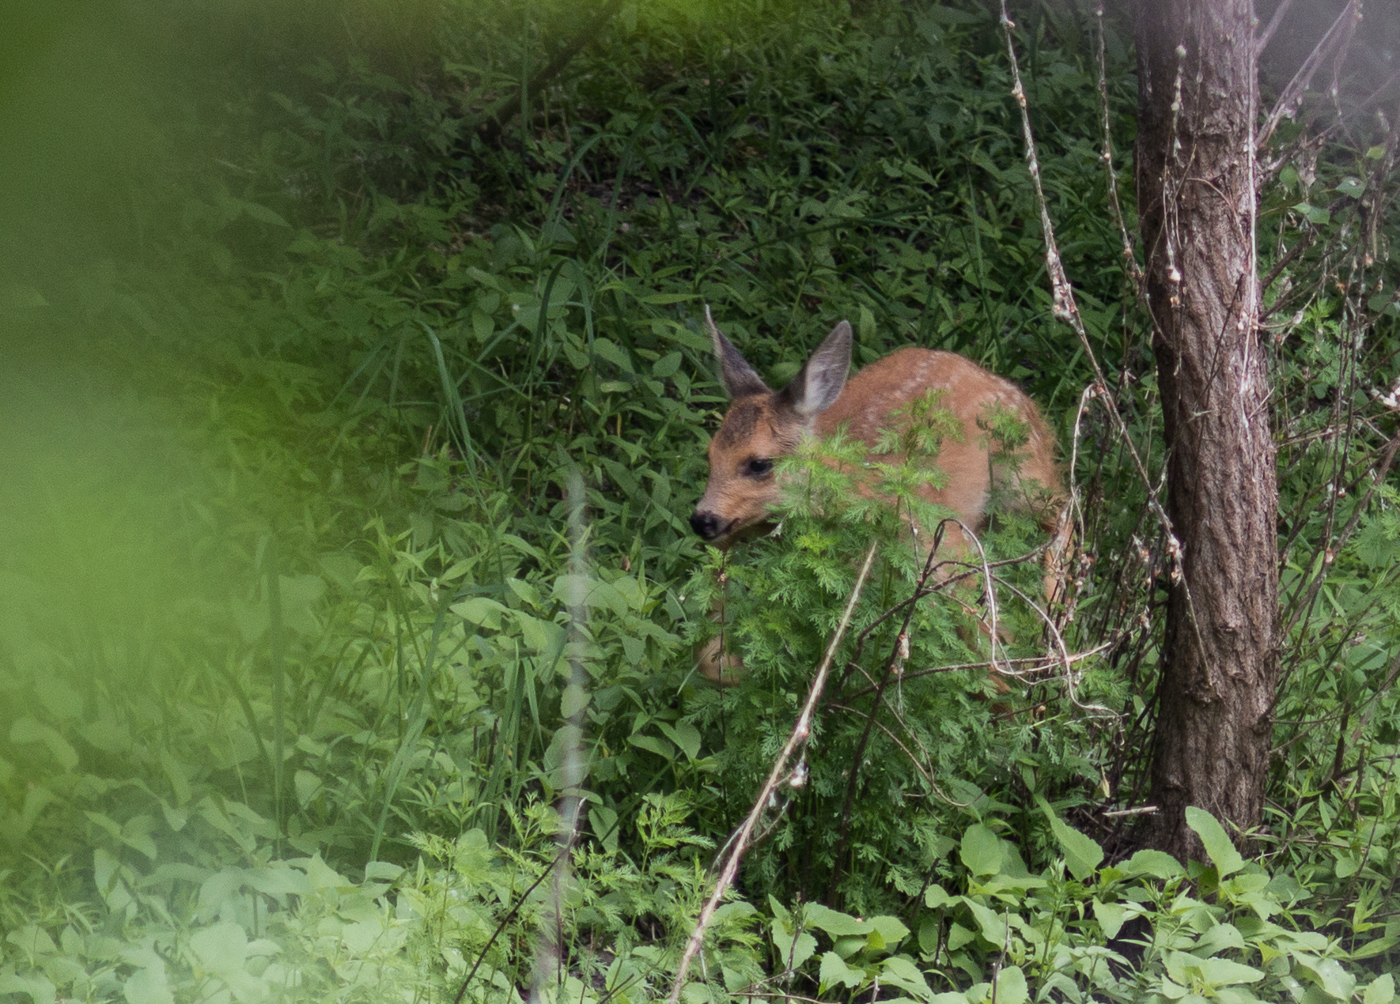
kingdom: Animalia
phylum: Chordata
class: Mammalia
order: Artiodactyla
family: Cervidae
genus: Capreolus
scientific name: Capreolus pygargus
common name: Siberian roe
